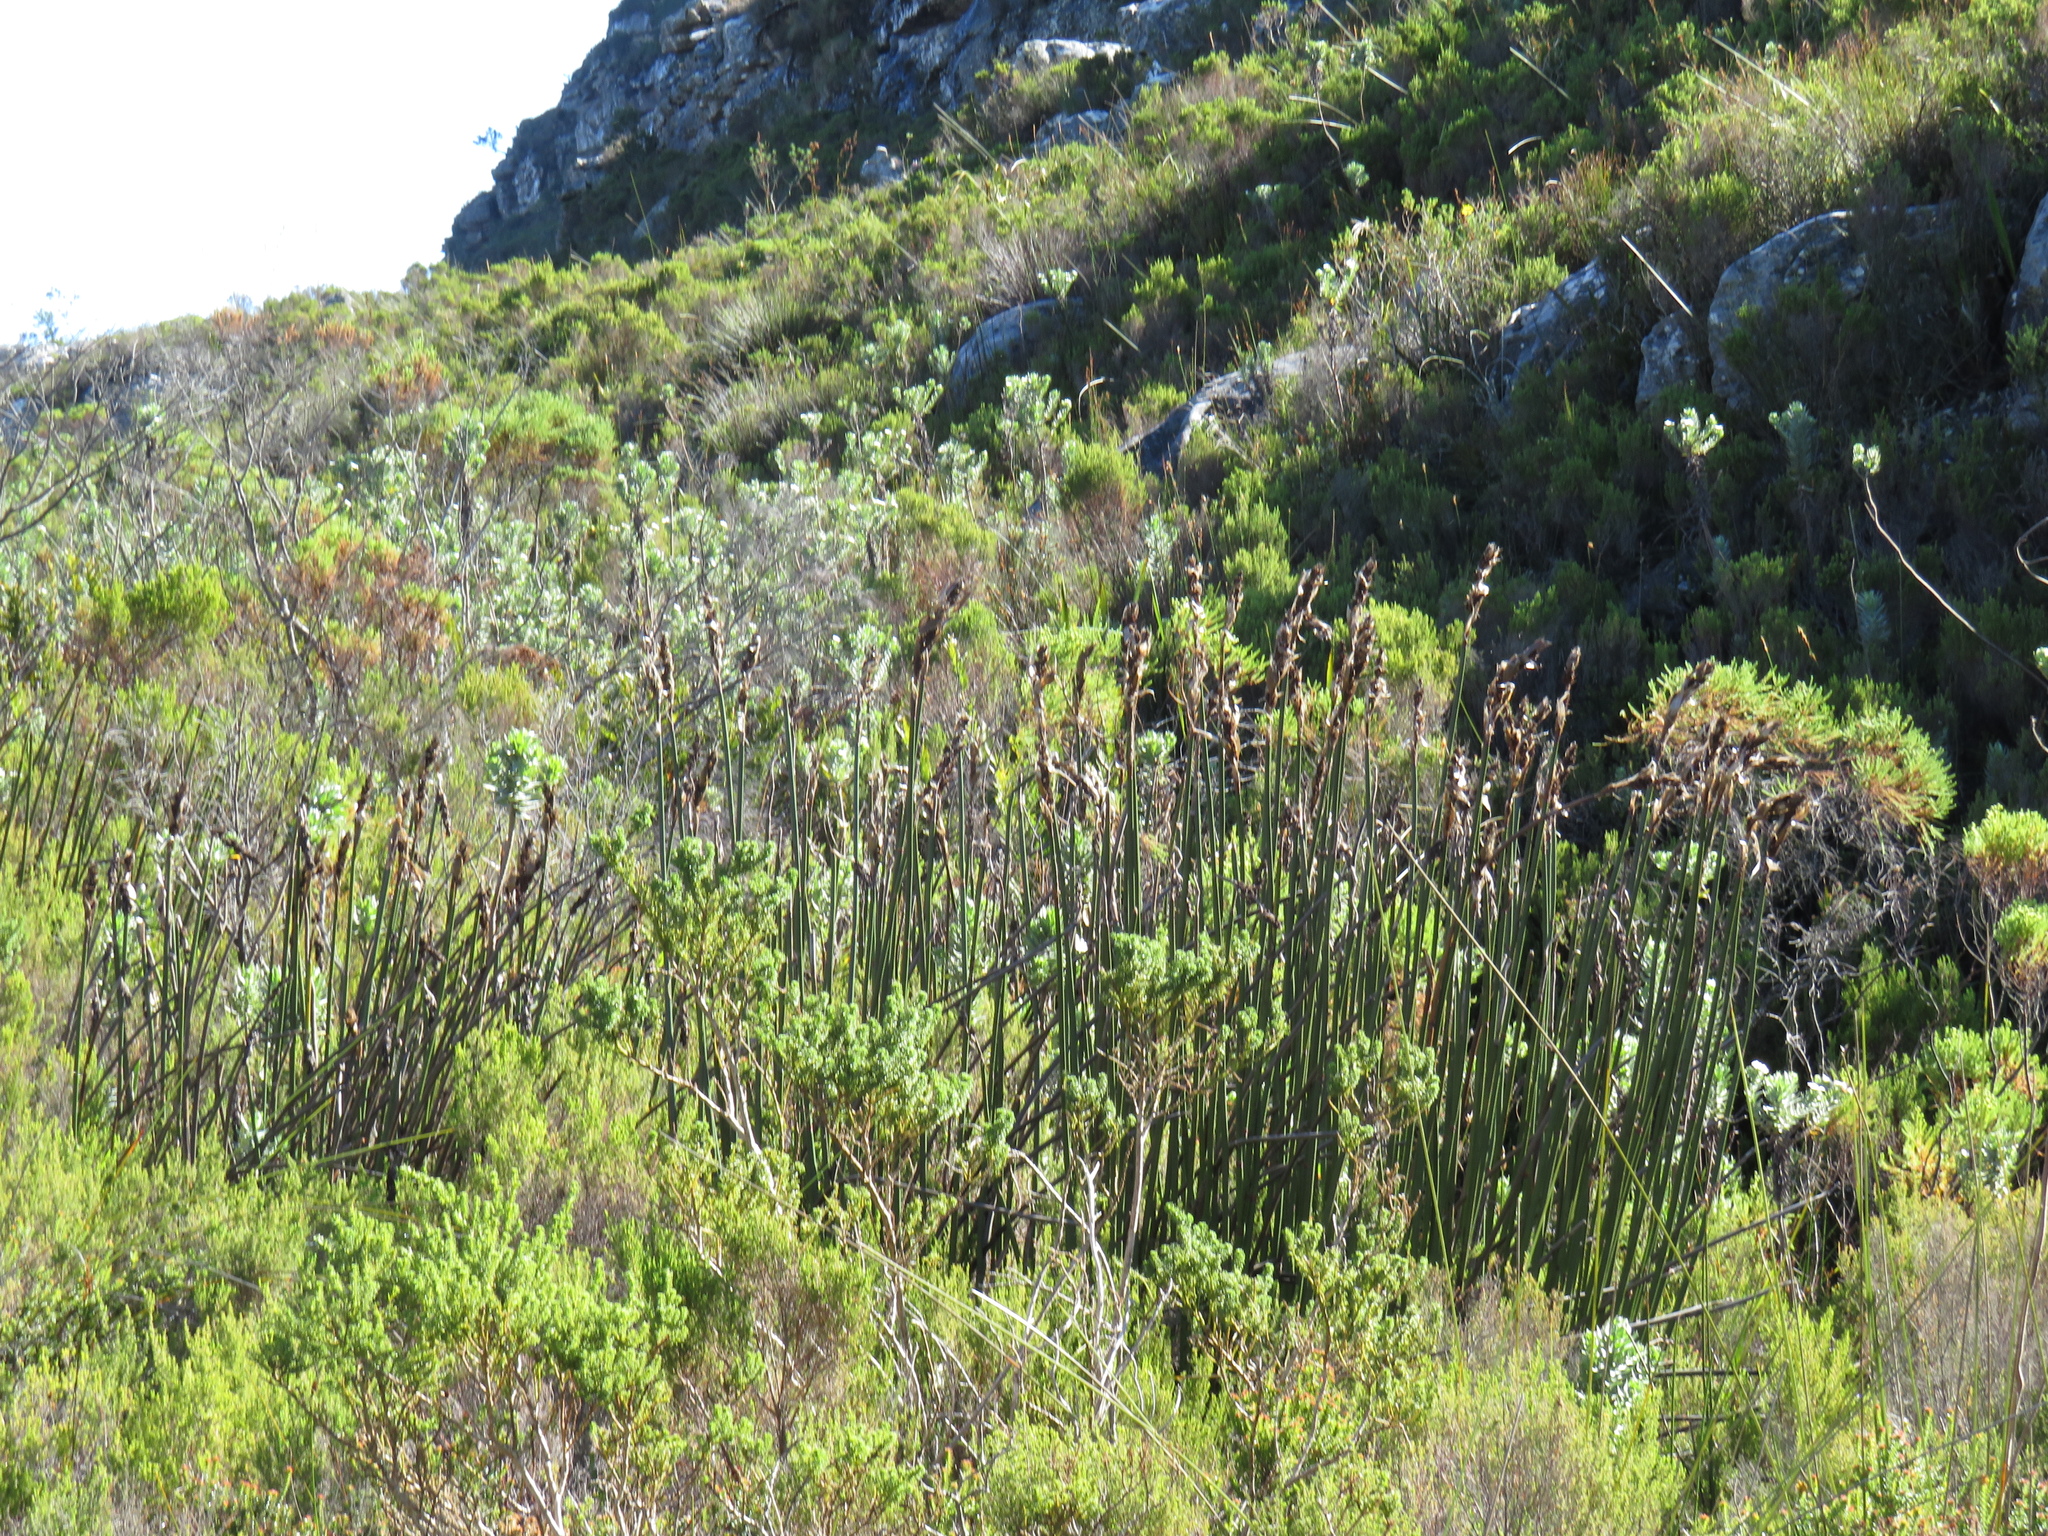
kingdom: Plantae
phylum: Tracheophyta
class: Liliopsida
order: Poales
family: Restionaceae
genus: Elegia
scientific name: Elegia mucronata
